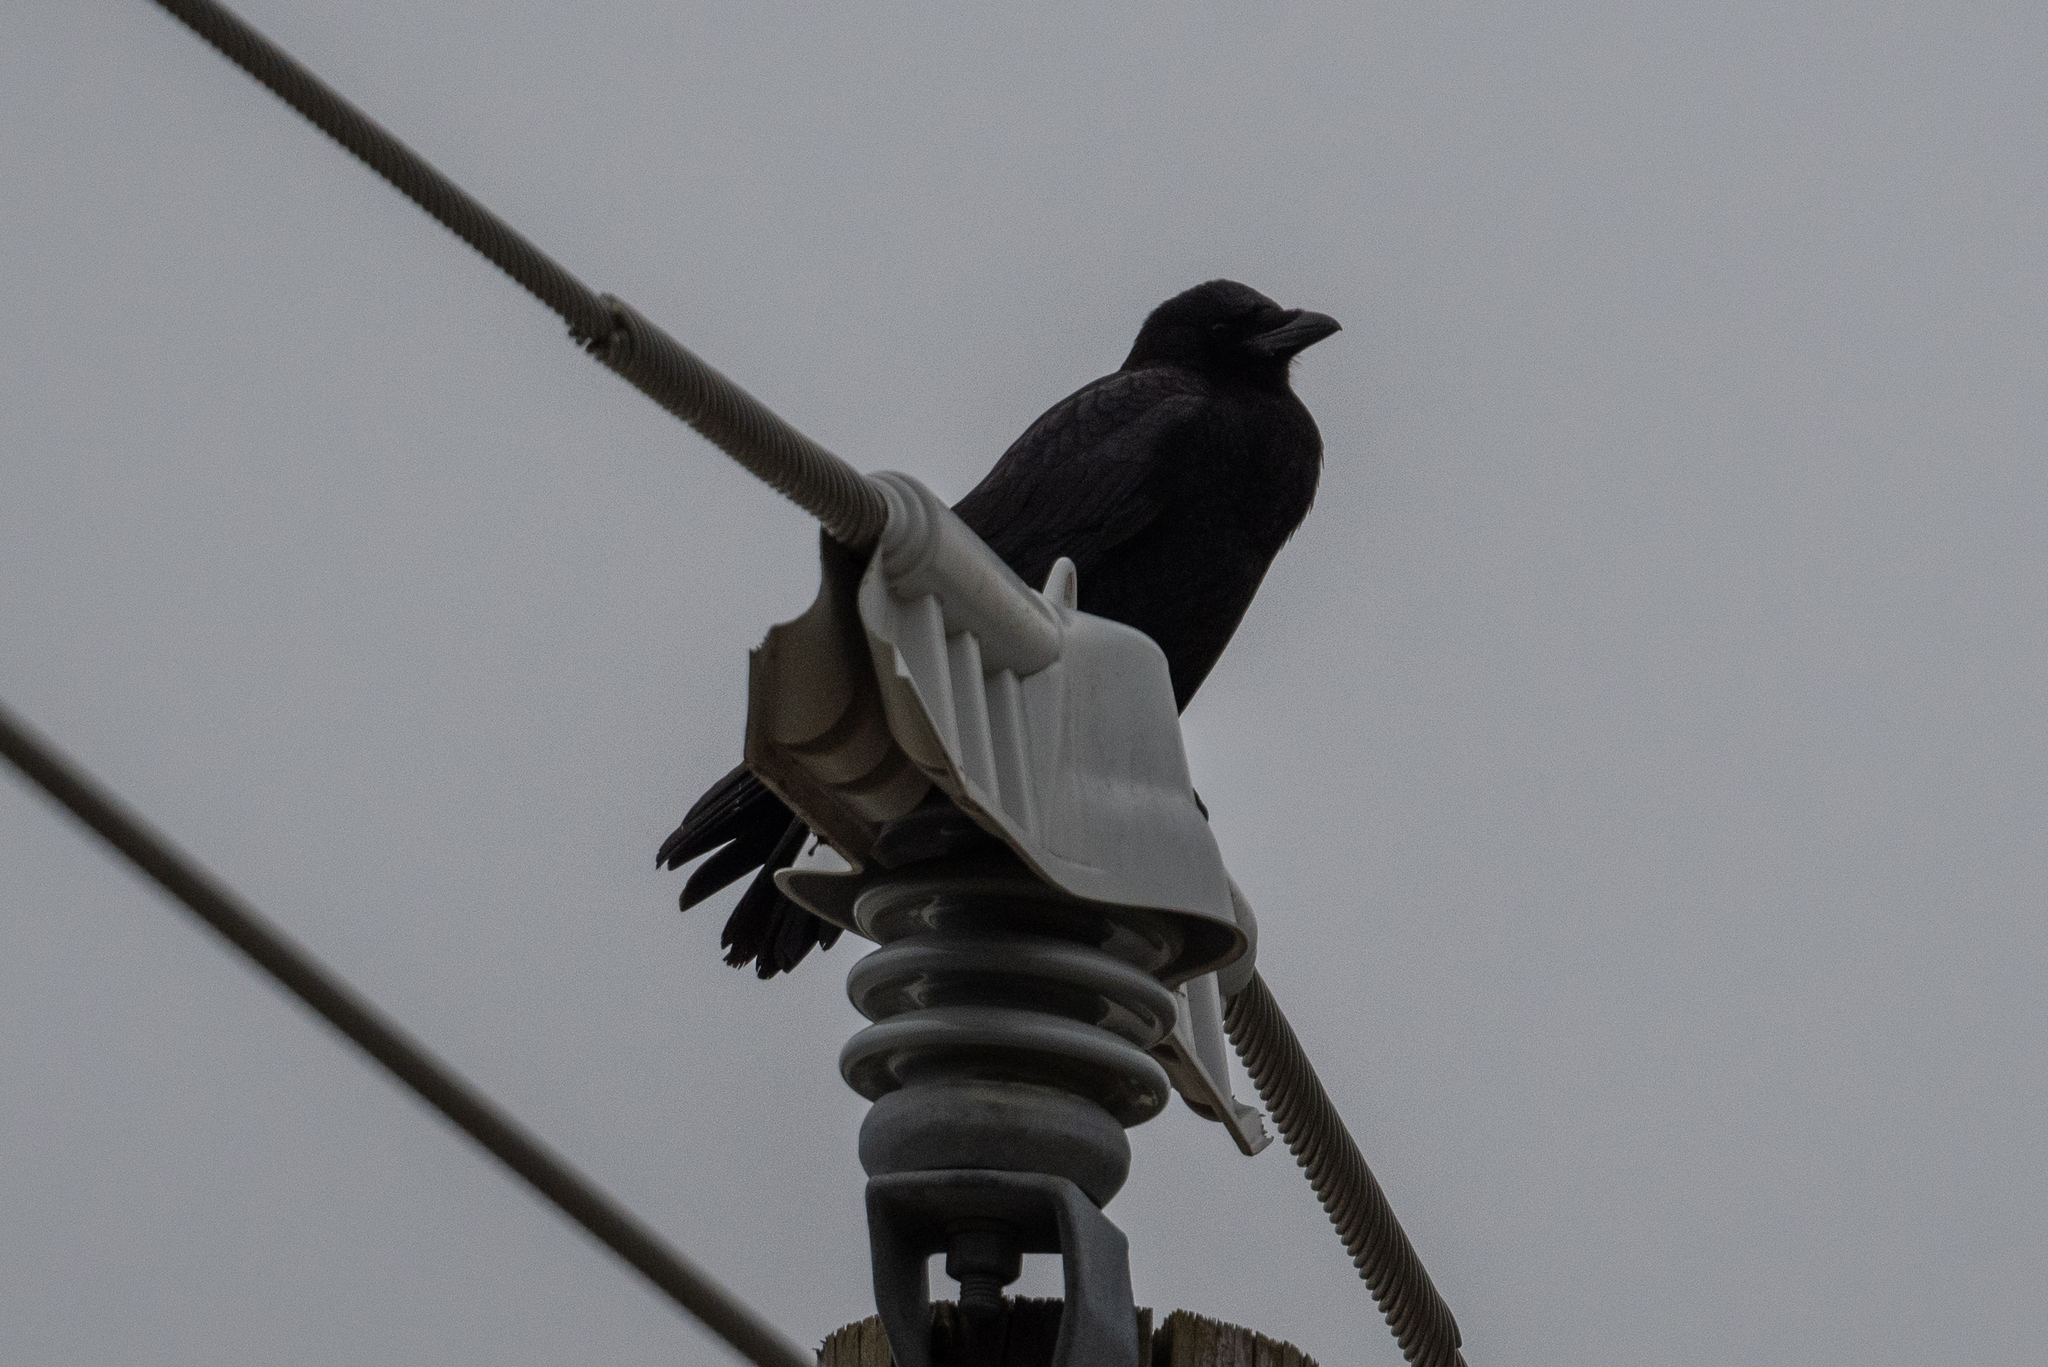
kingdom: Animalia
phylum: Chordata
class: Aves
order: Passeriformes
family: Corvidae
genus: Corvus
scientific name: Corvus corax
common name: Common raven
